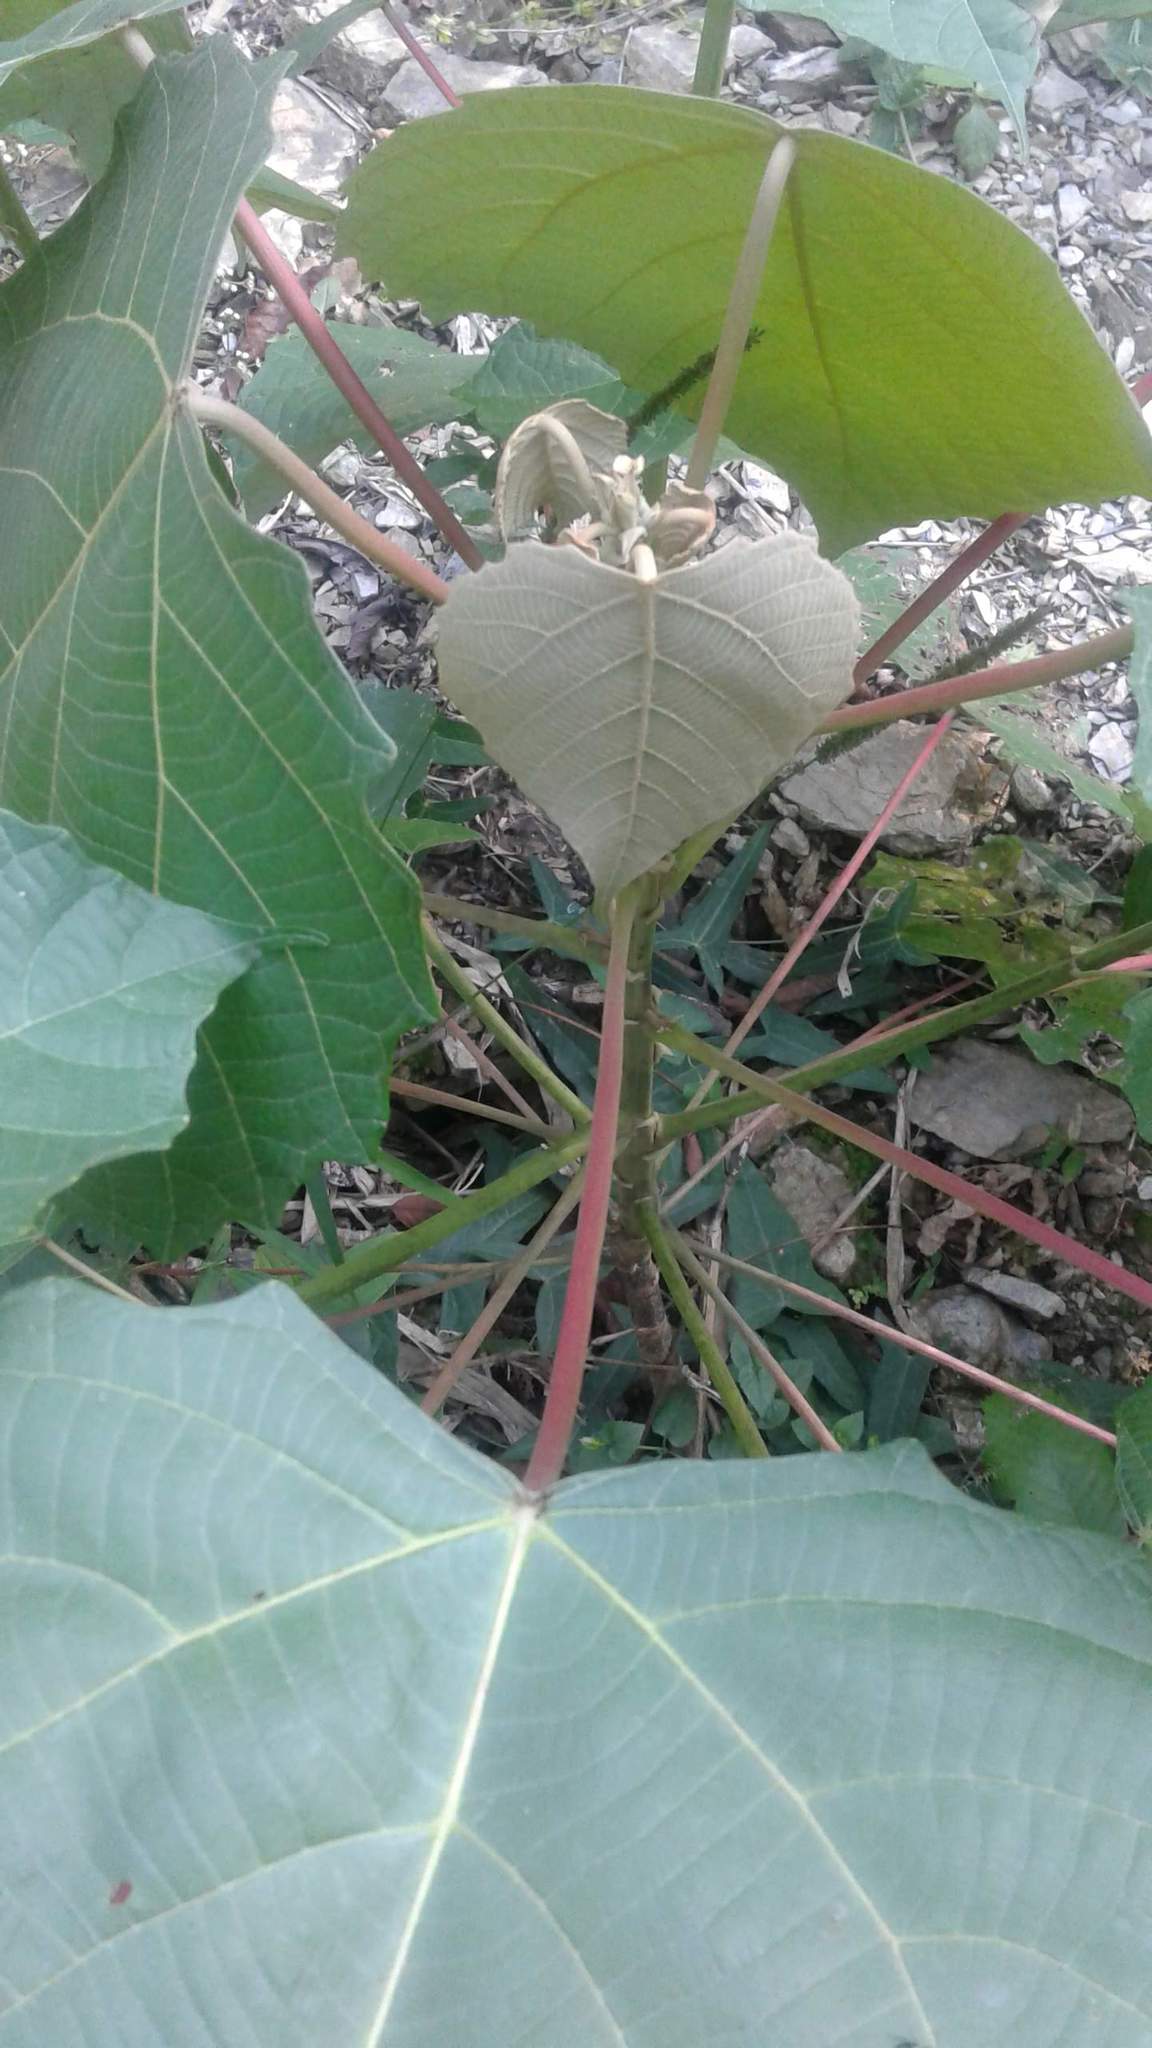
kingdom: Plantae
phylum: Tracheophyta
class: Magnoliopsida
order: Malpighiales
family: Euphorbiaceae
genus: Macaranga
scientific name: Macaranga denticulata
